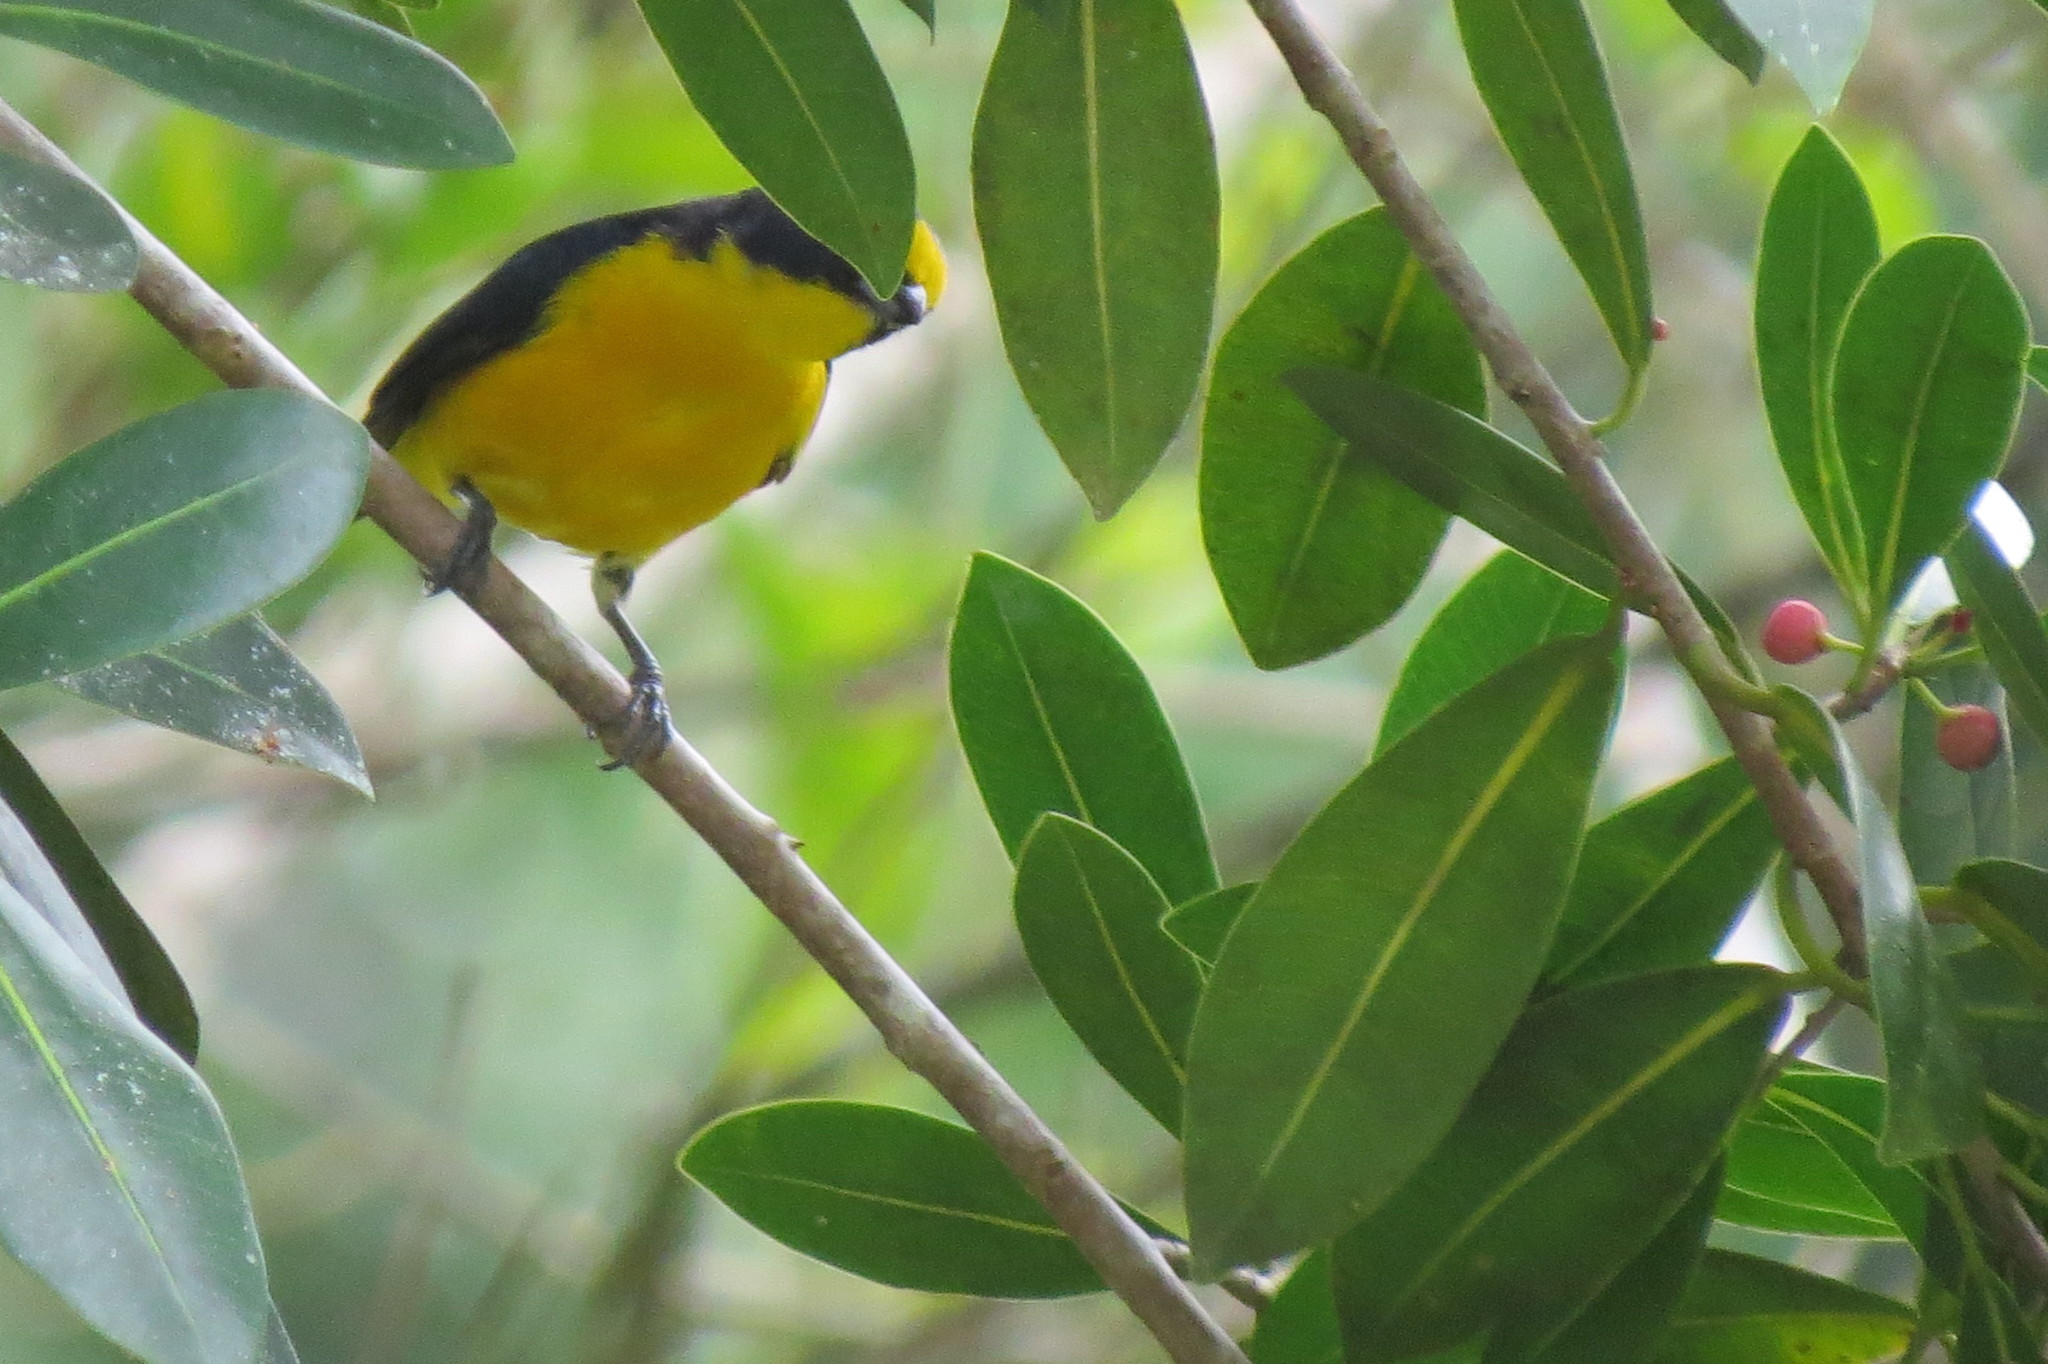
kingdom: Animalia
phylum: Chordata
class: Aves
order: Passeriformes
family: Fringillidae
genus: Euphonia
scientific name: Euphonia hirundinacea
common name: Yellow-throated euphonia
